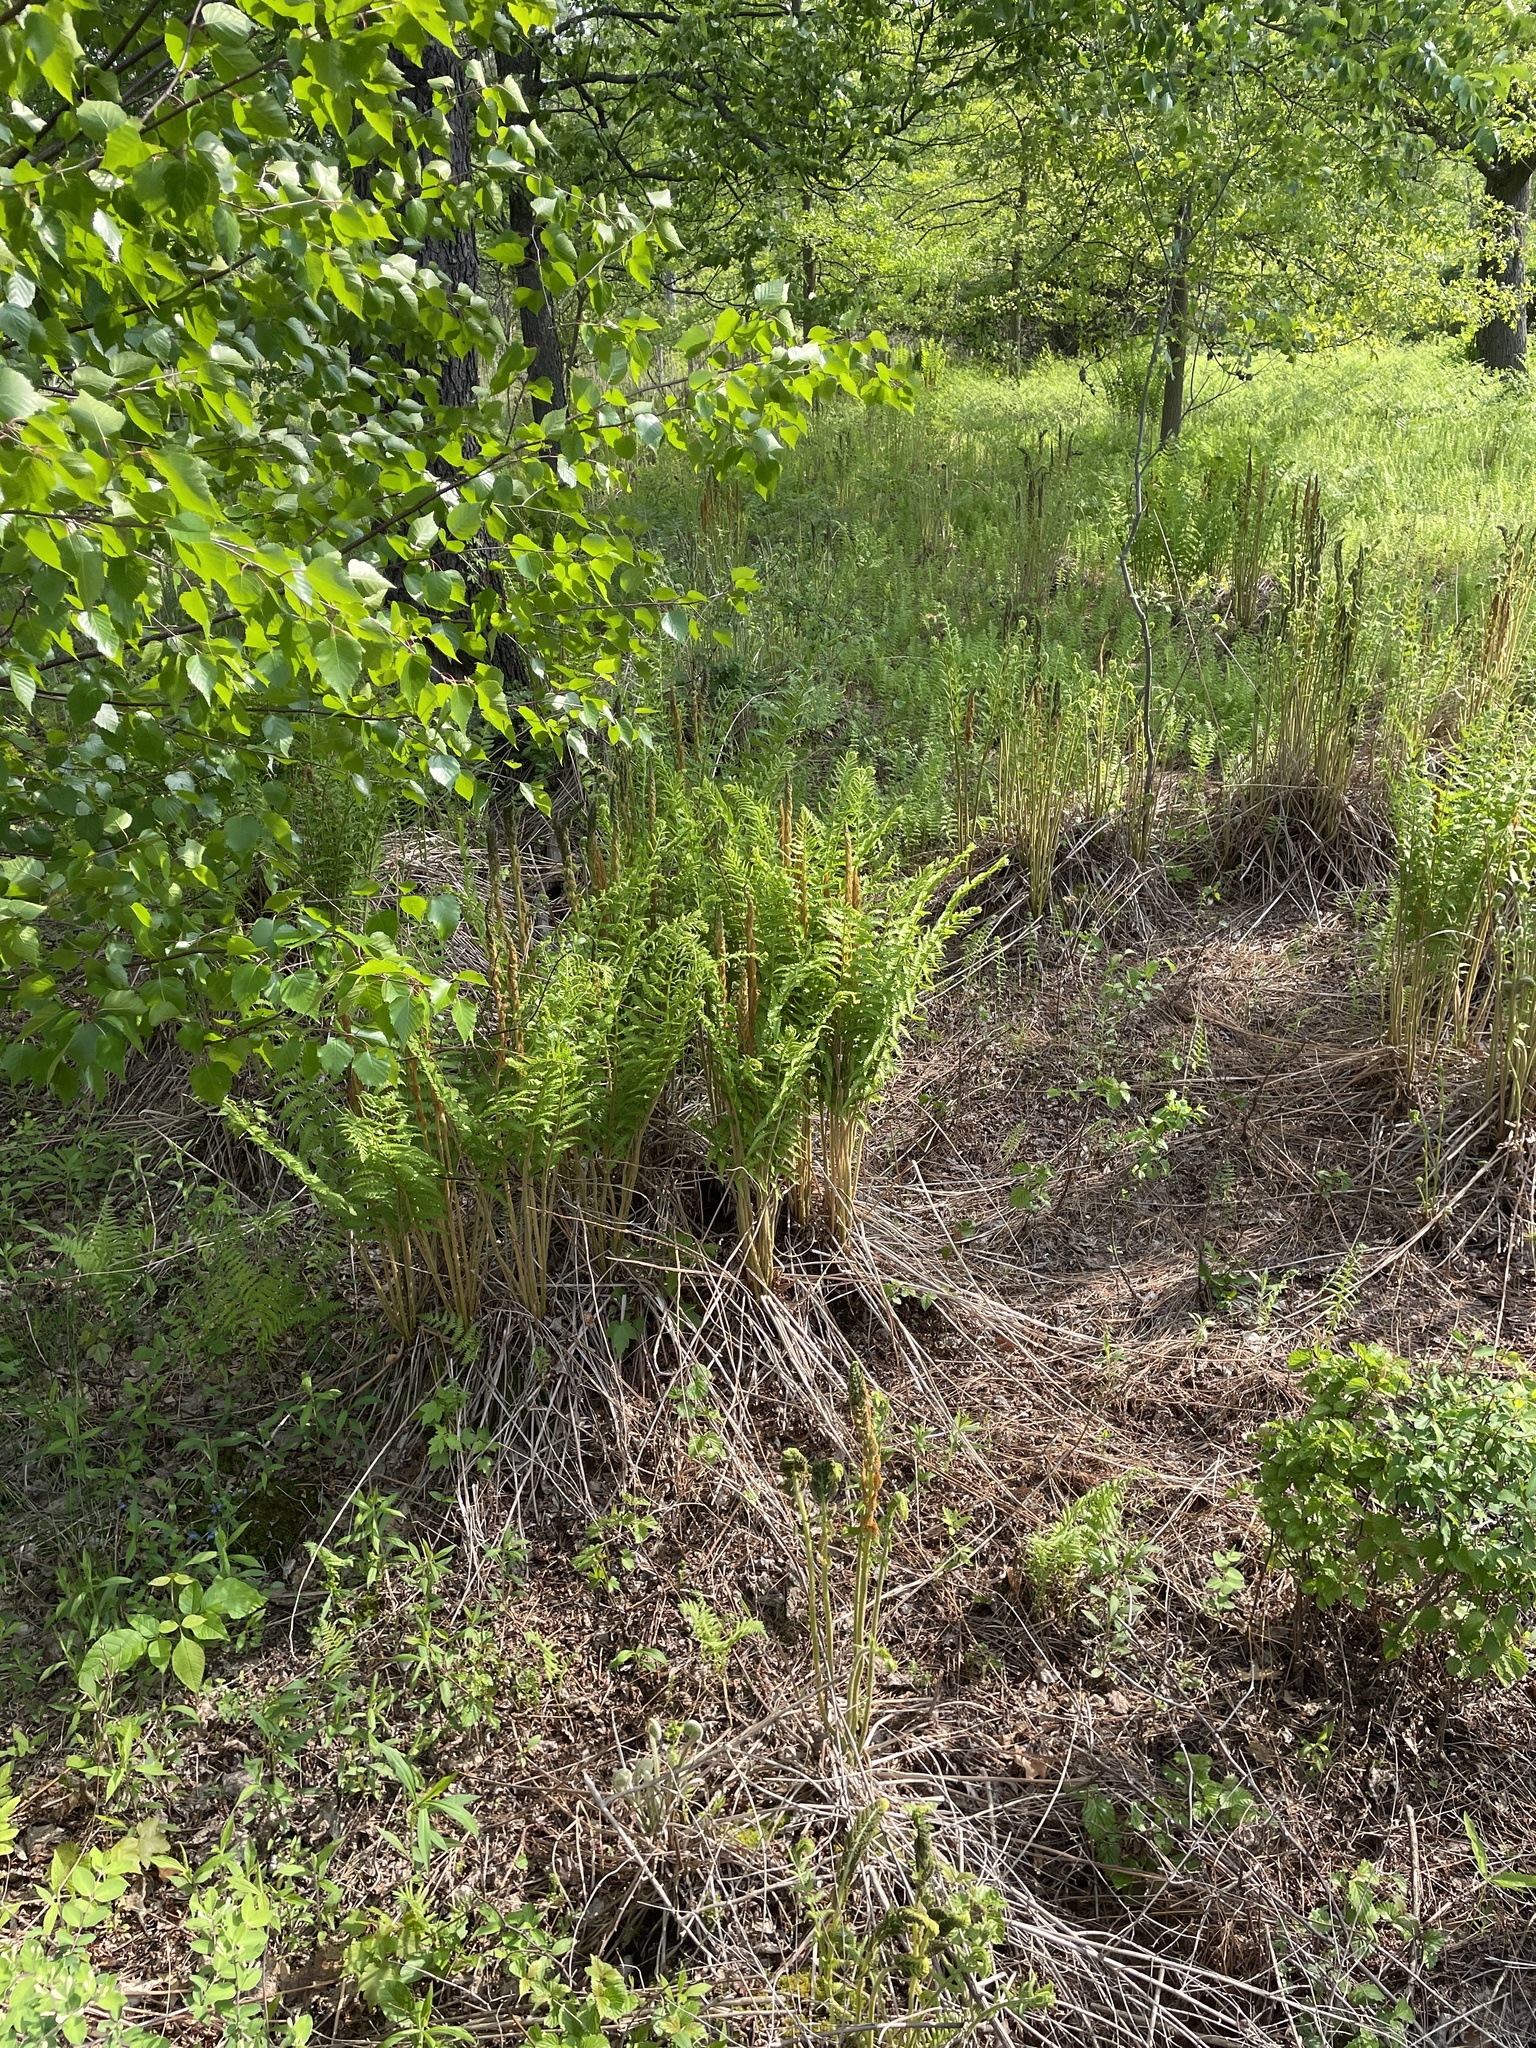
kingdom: Plantae
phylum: Tracheophyta
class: Polypodiopsida
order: Osmundales
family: Osmundaceae
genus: Osmundastrum
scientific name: Osmundastrum cinnamomeum
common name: Cinnamon fern
